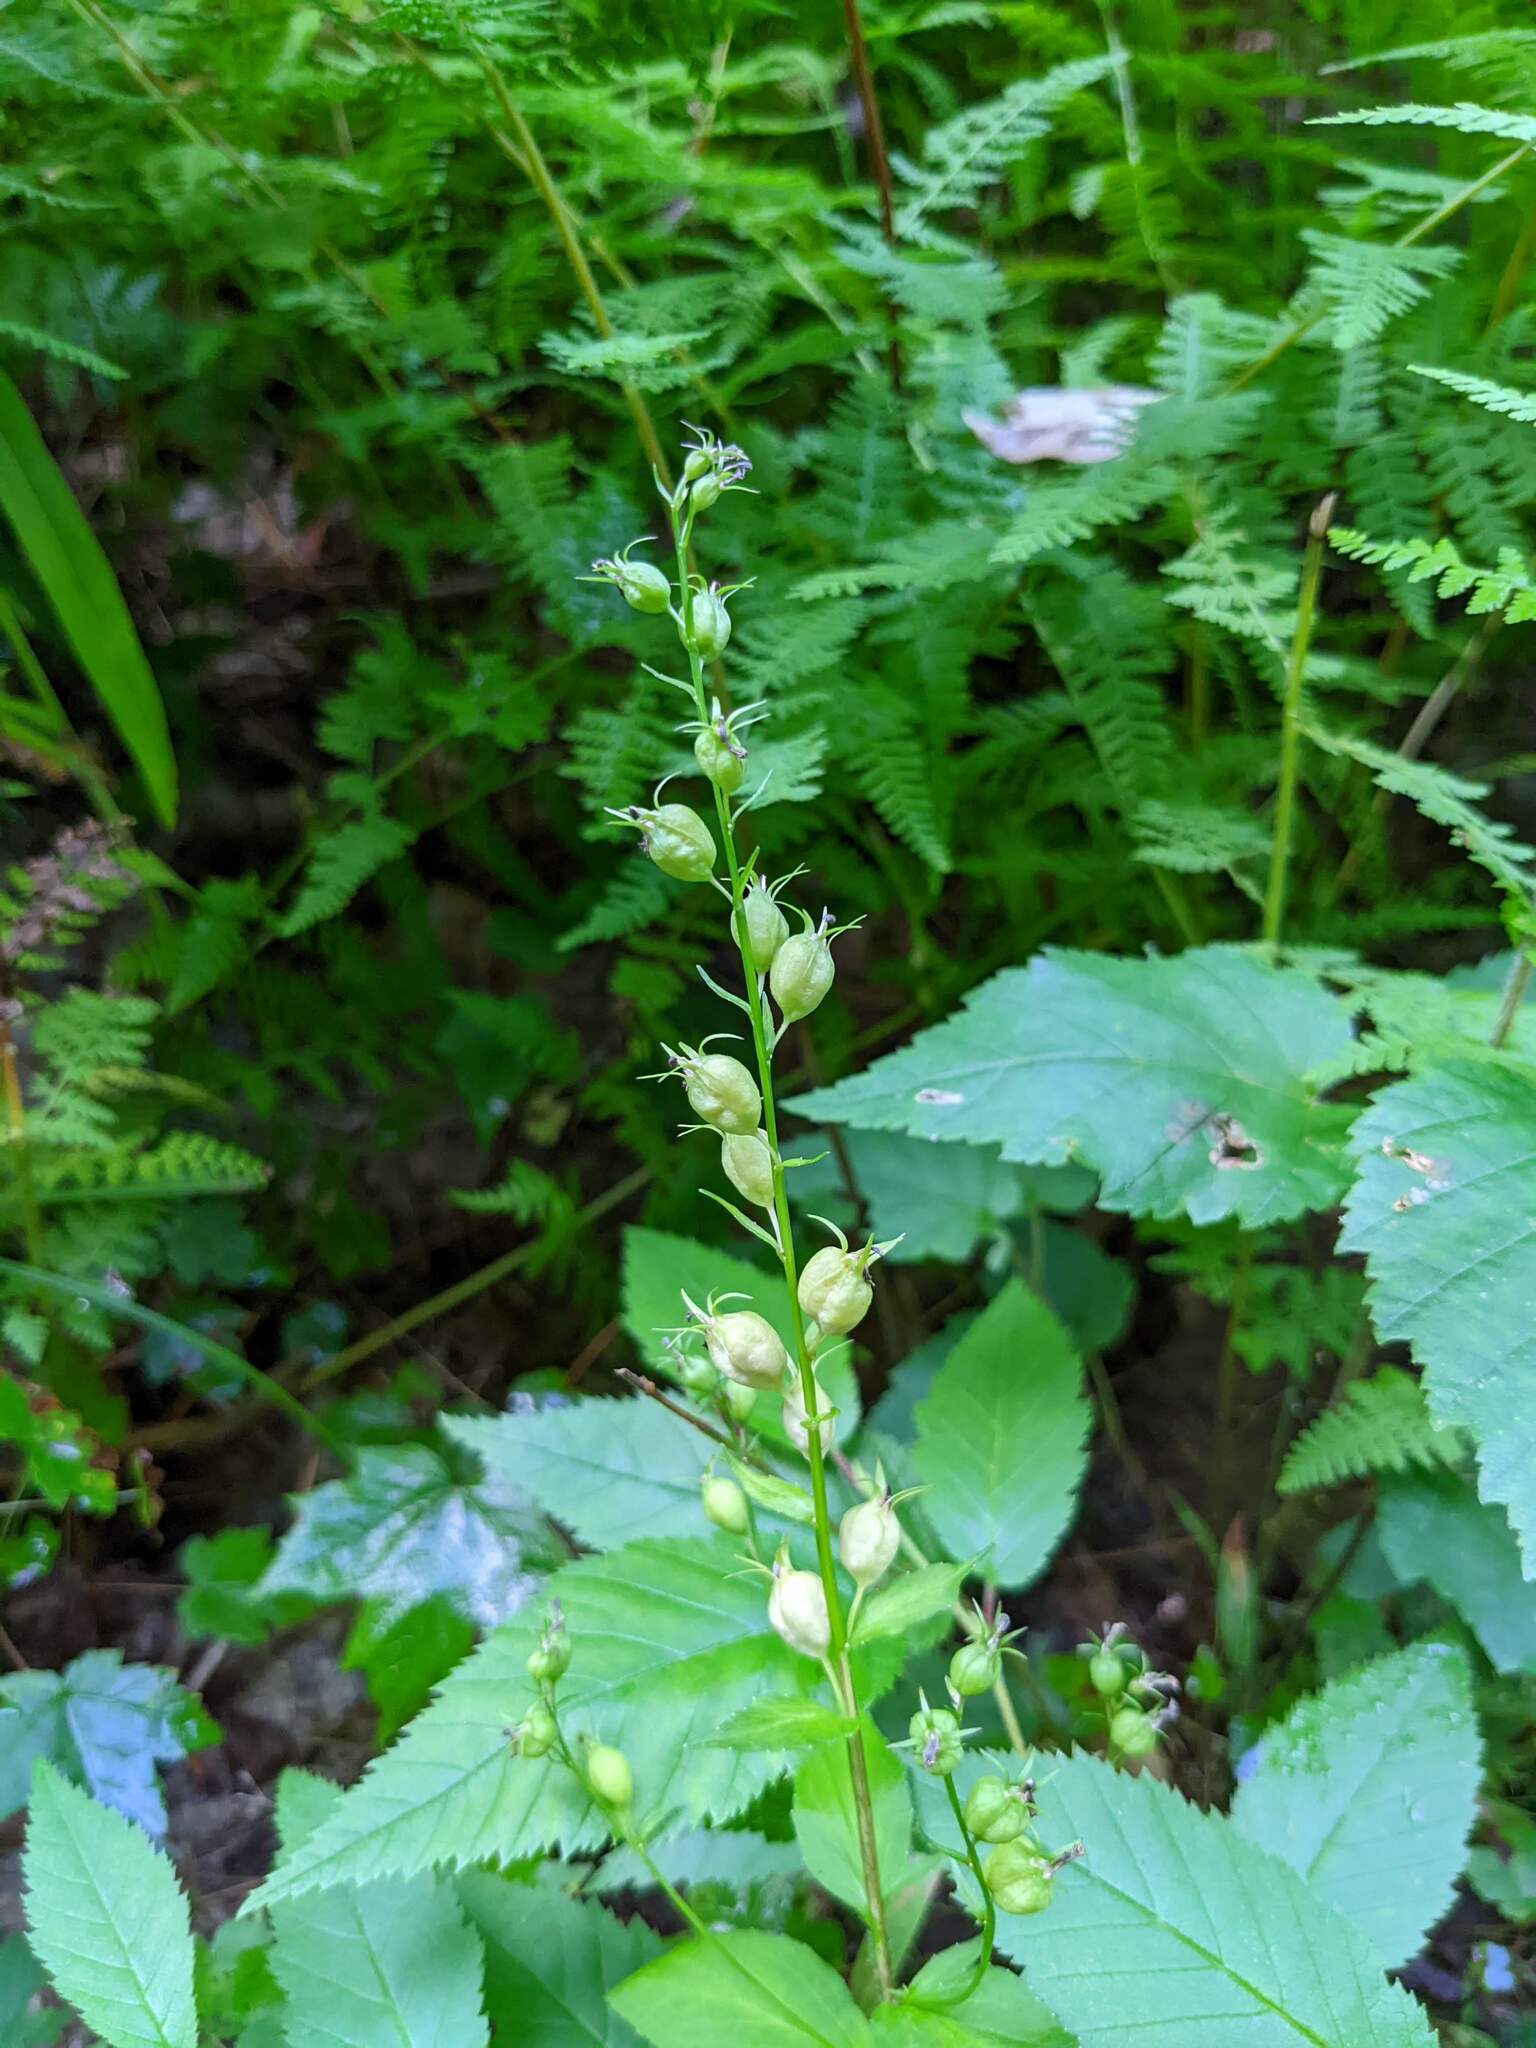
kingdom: Plantae
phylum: Tracheophyta
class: Magnoliopsida
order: Asterales
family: Campanulaceae
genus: Lobelia
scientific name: Lobelia inflata
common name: Indian tobacco
